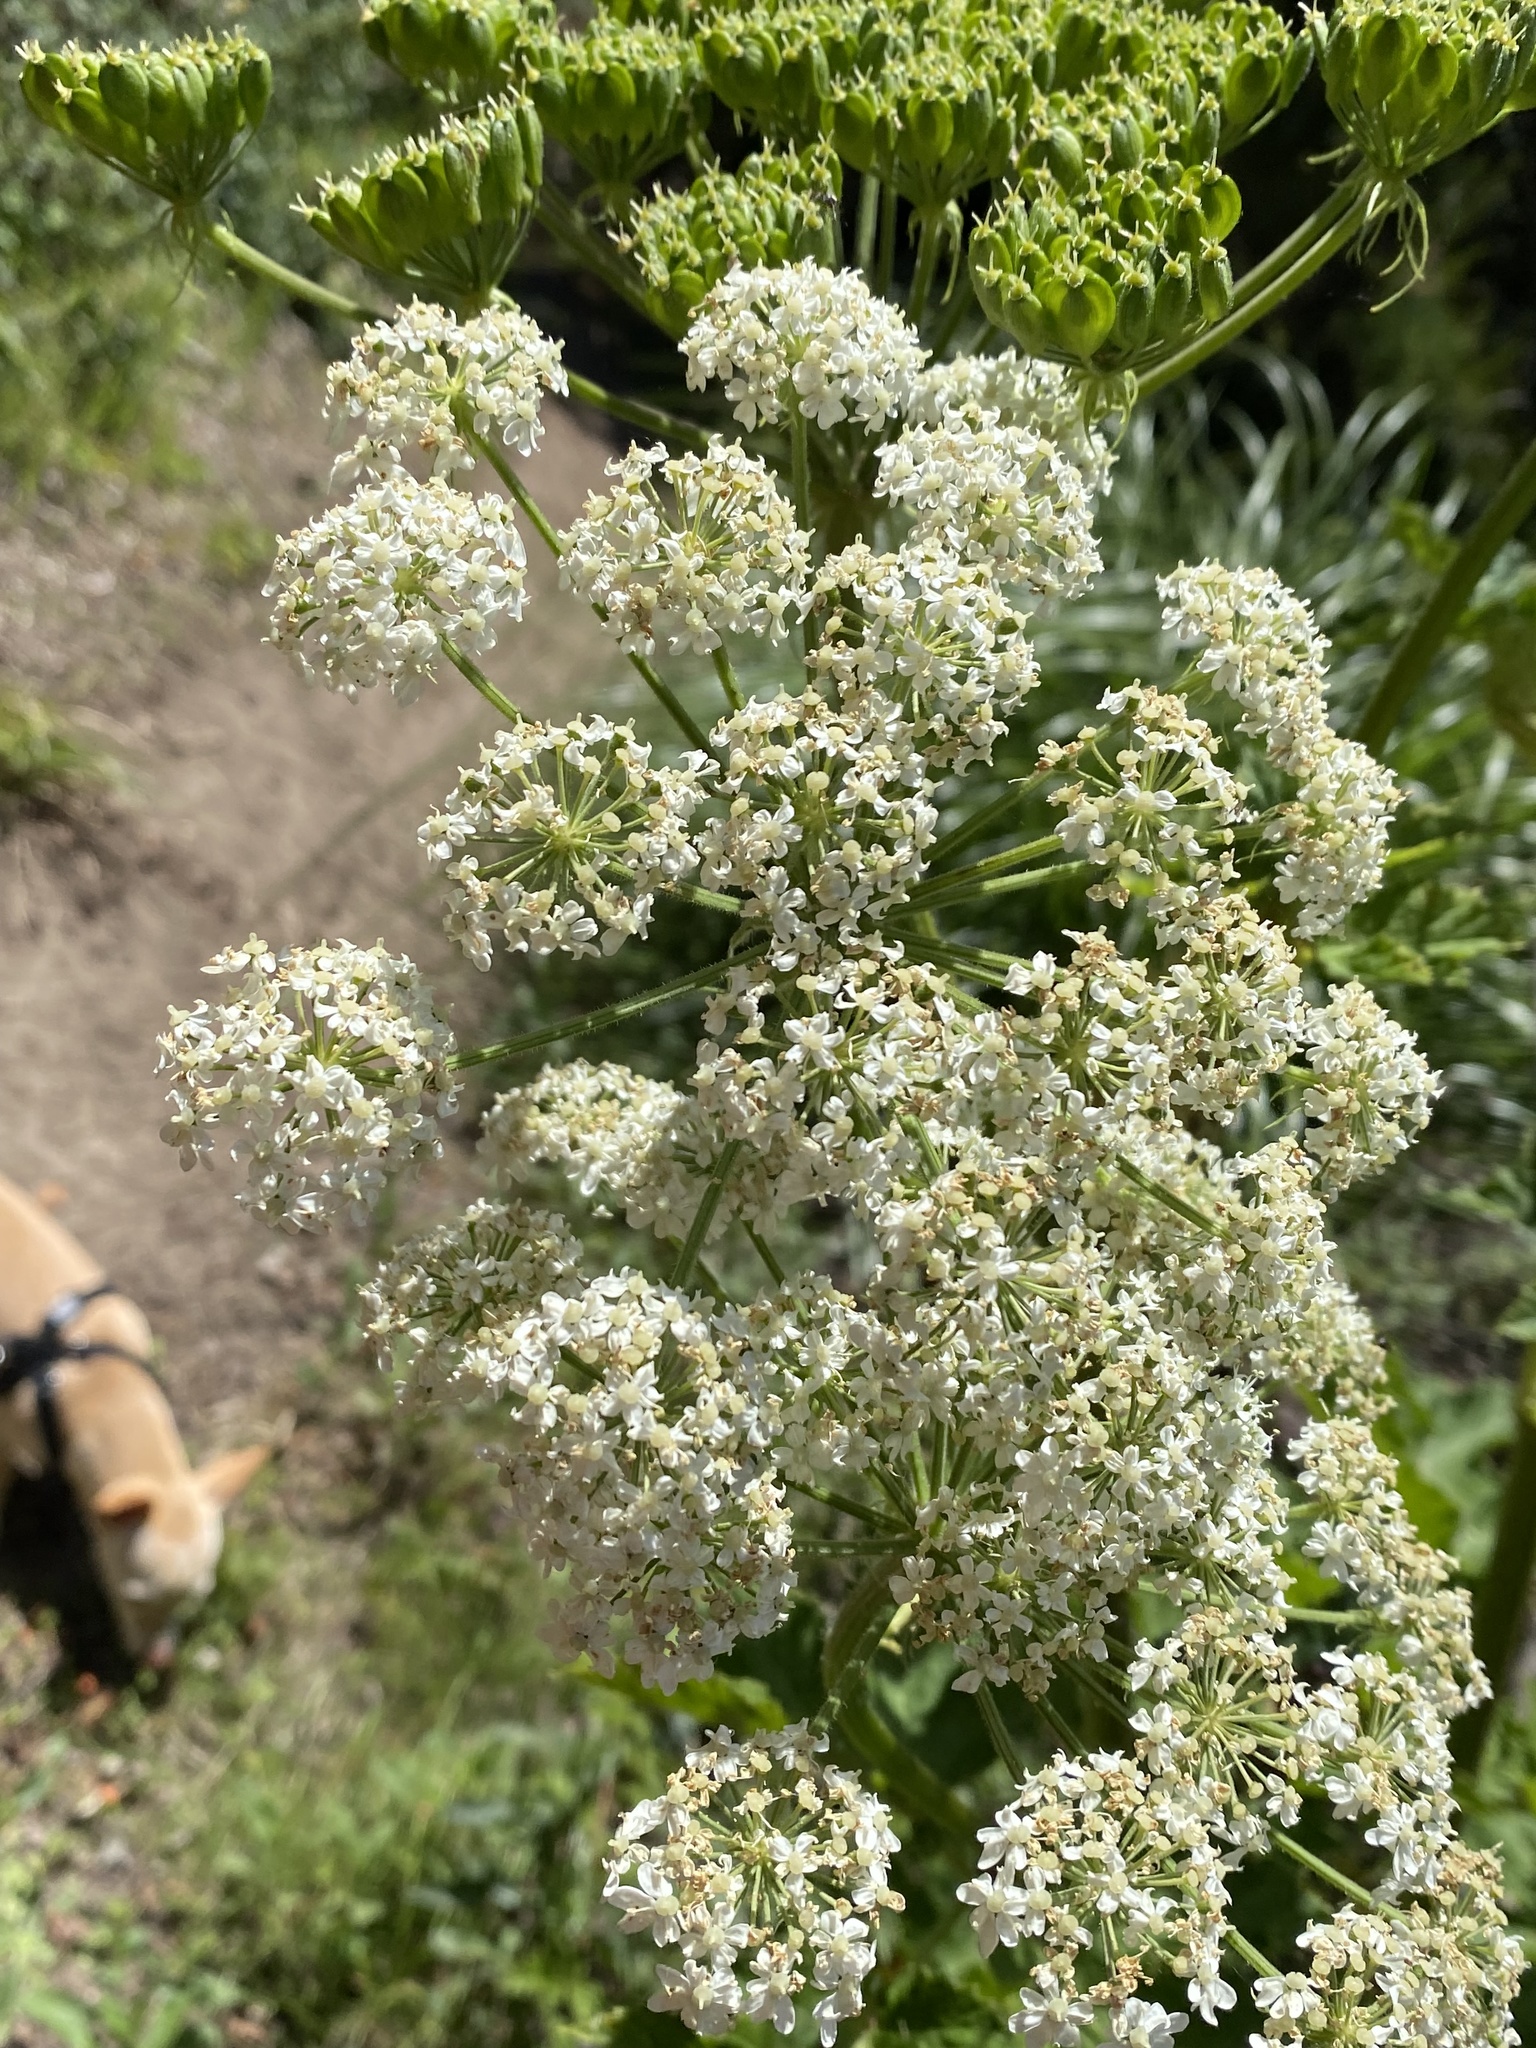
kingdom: Plantae
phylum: Tracheophyta
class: Magnoliopsida
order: Apiales
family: Apiaceae
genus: Heracleum
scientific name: Heracleum maximum
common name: American cow parsnip
